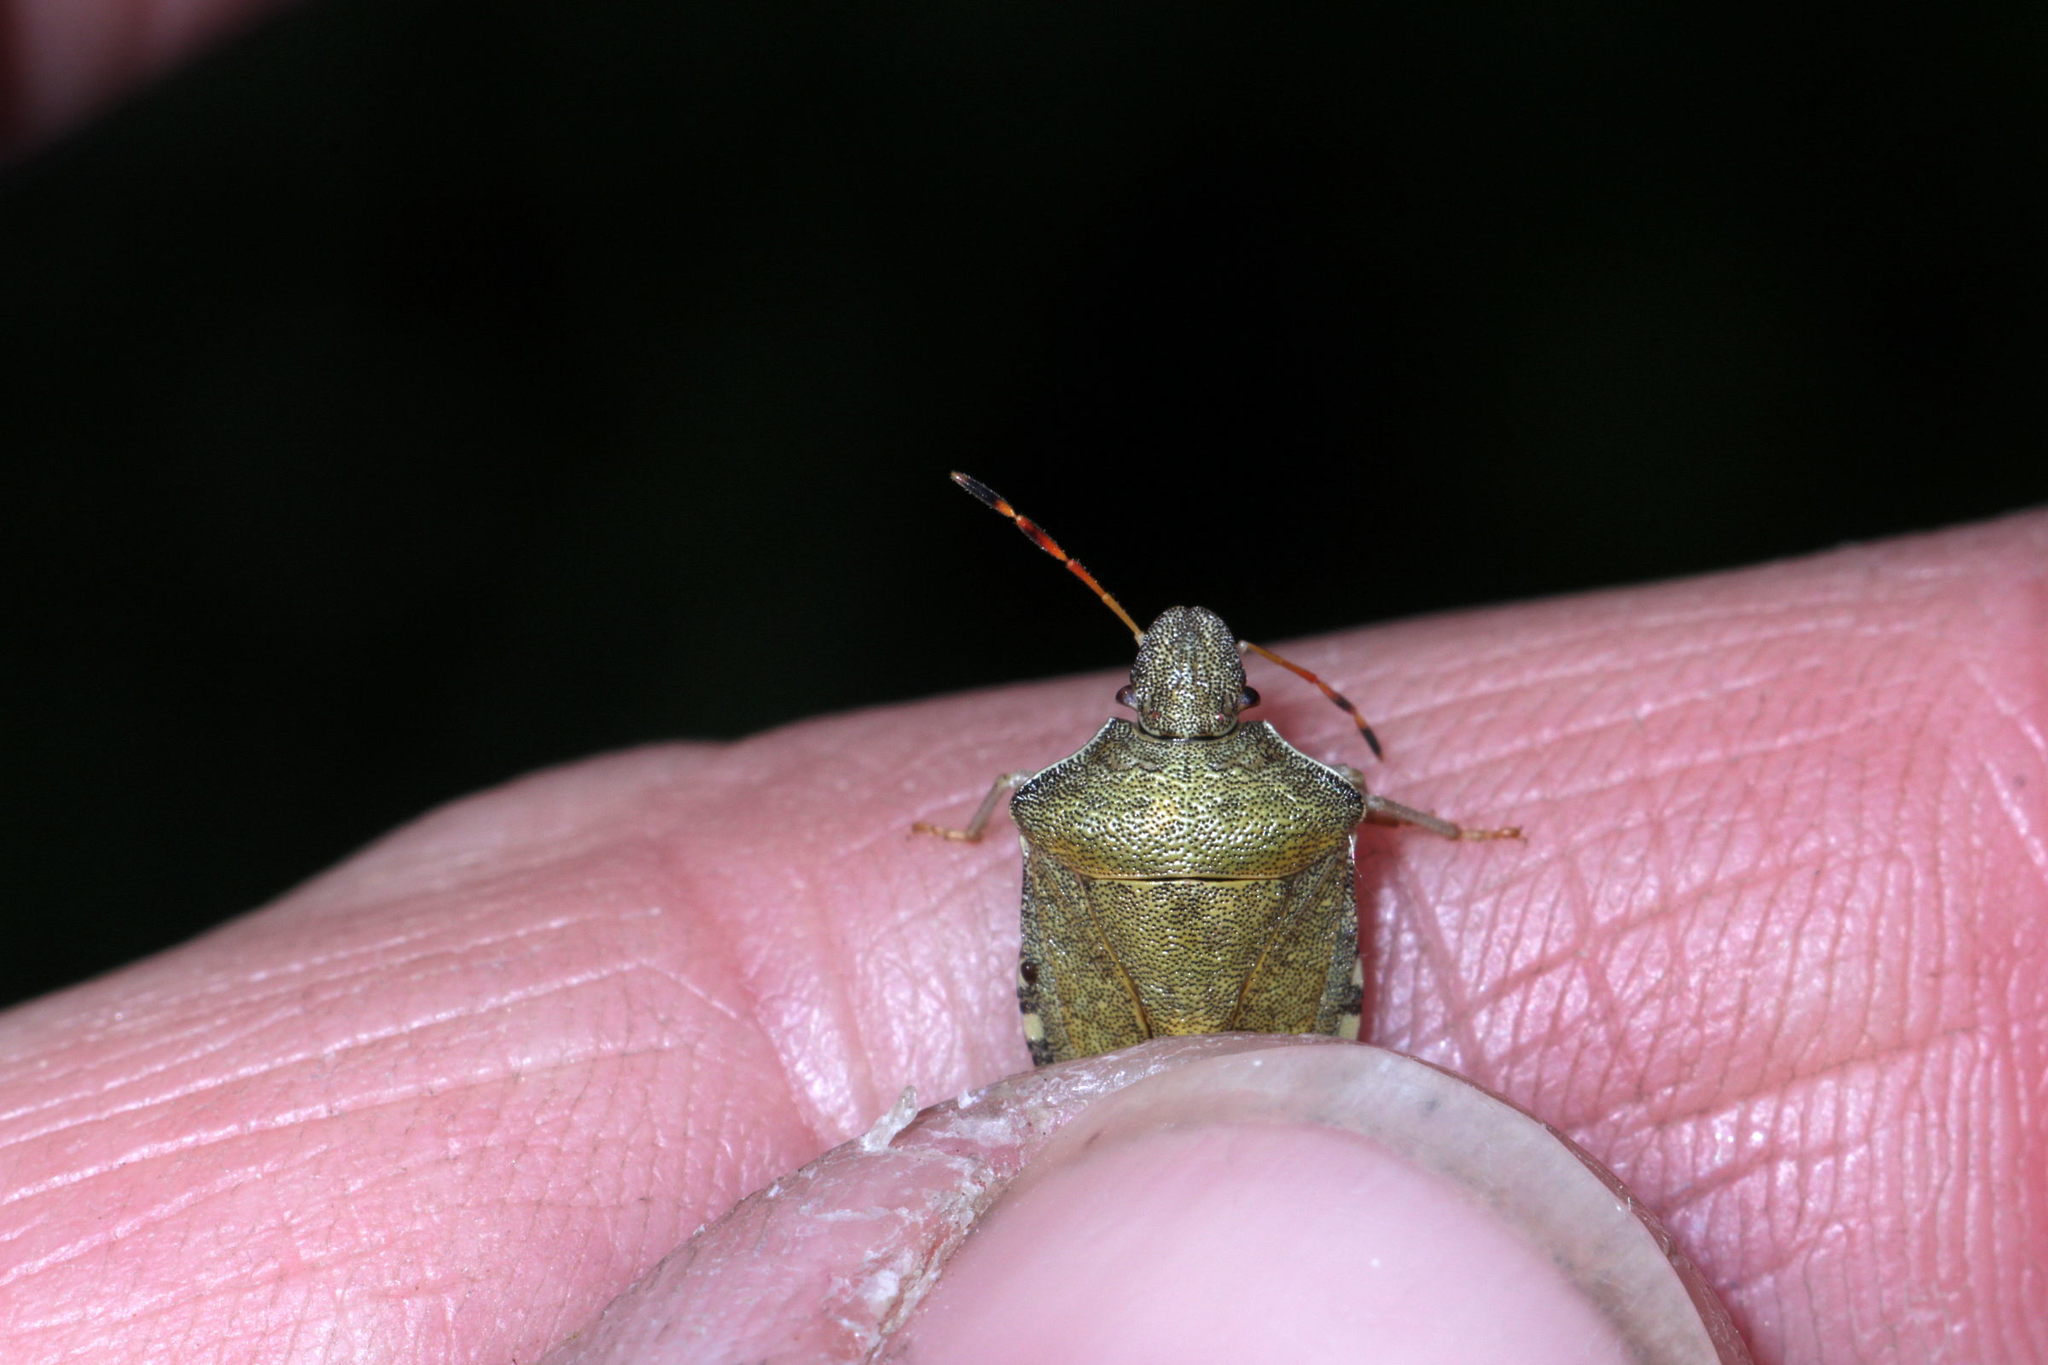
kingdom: Animalia
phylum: Arthropoda
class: Insecta
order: Hemiptera
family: Pentatomidae
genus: Holcostethus
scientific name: Holcostethus strictus
